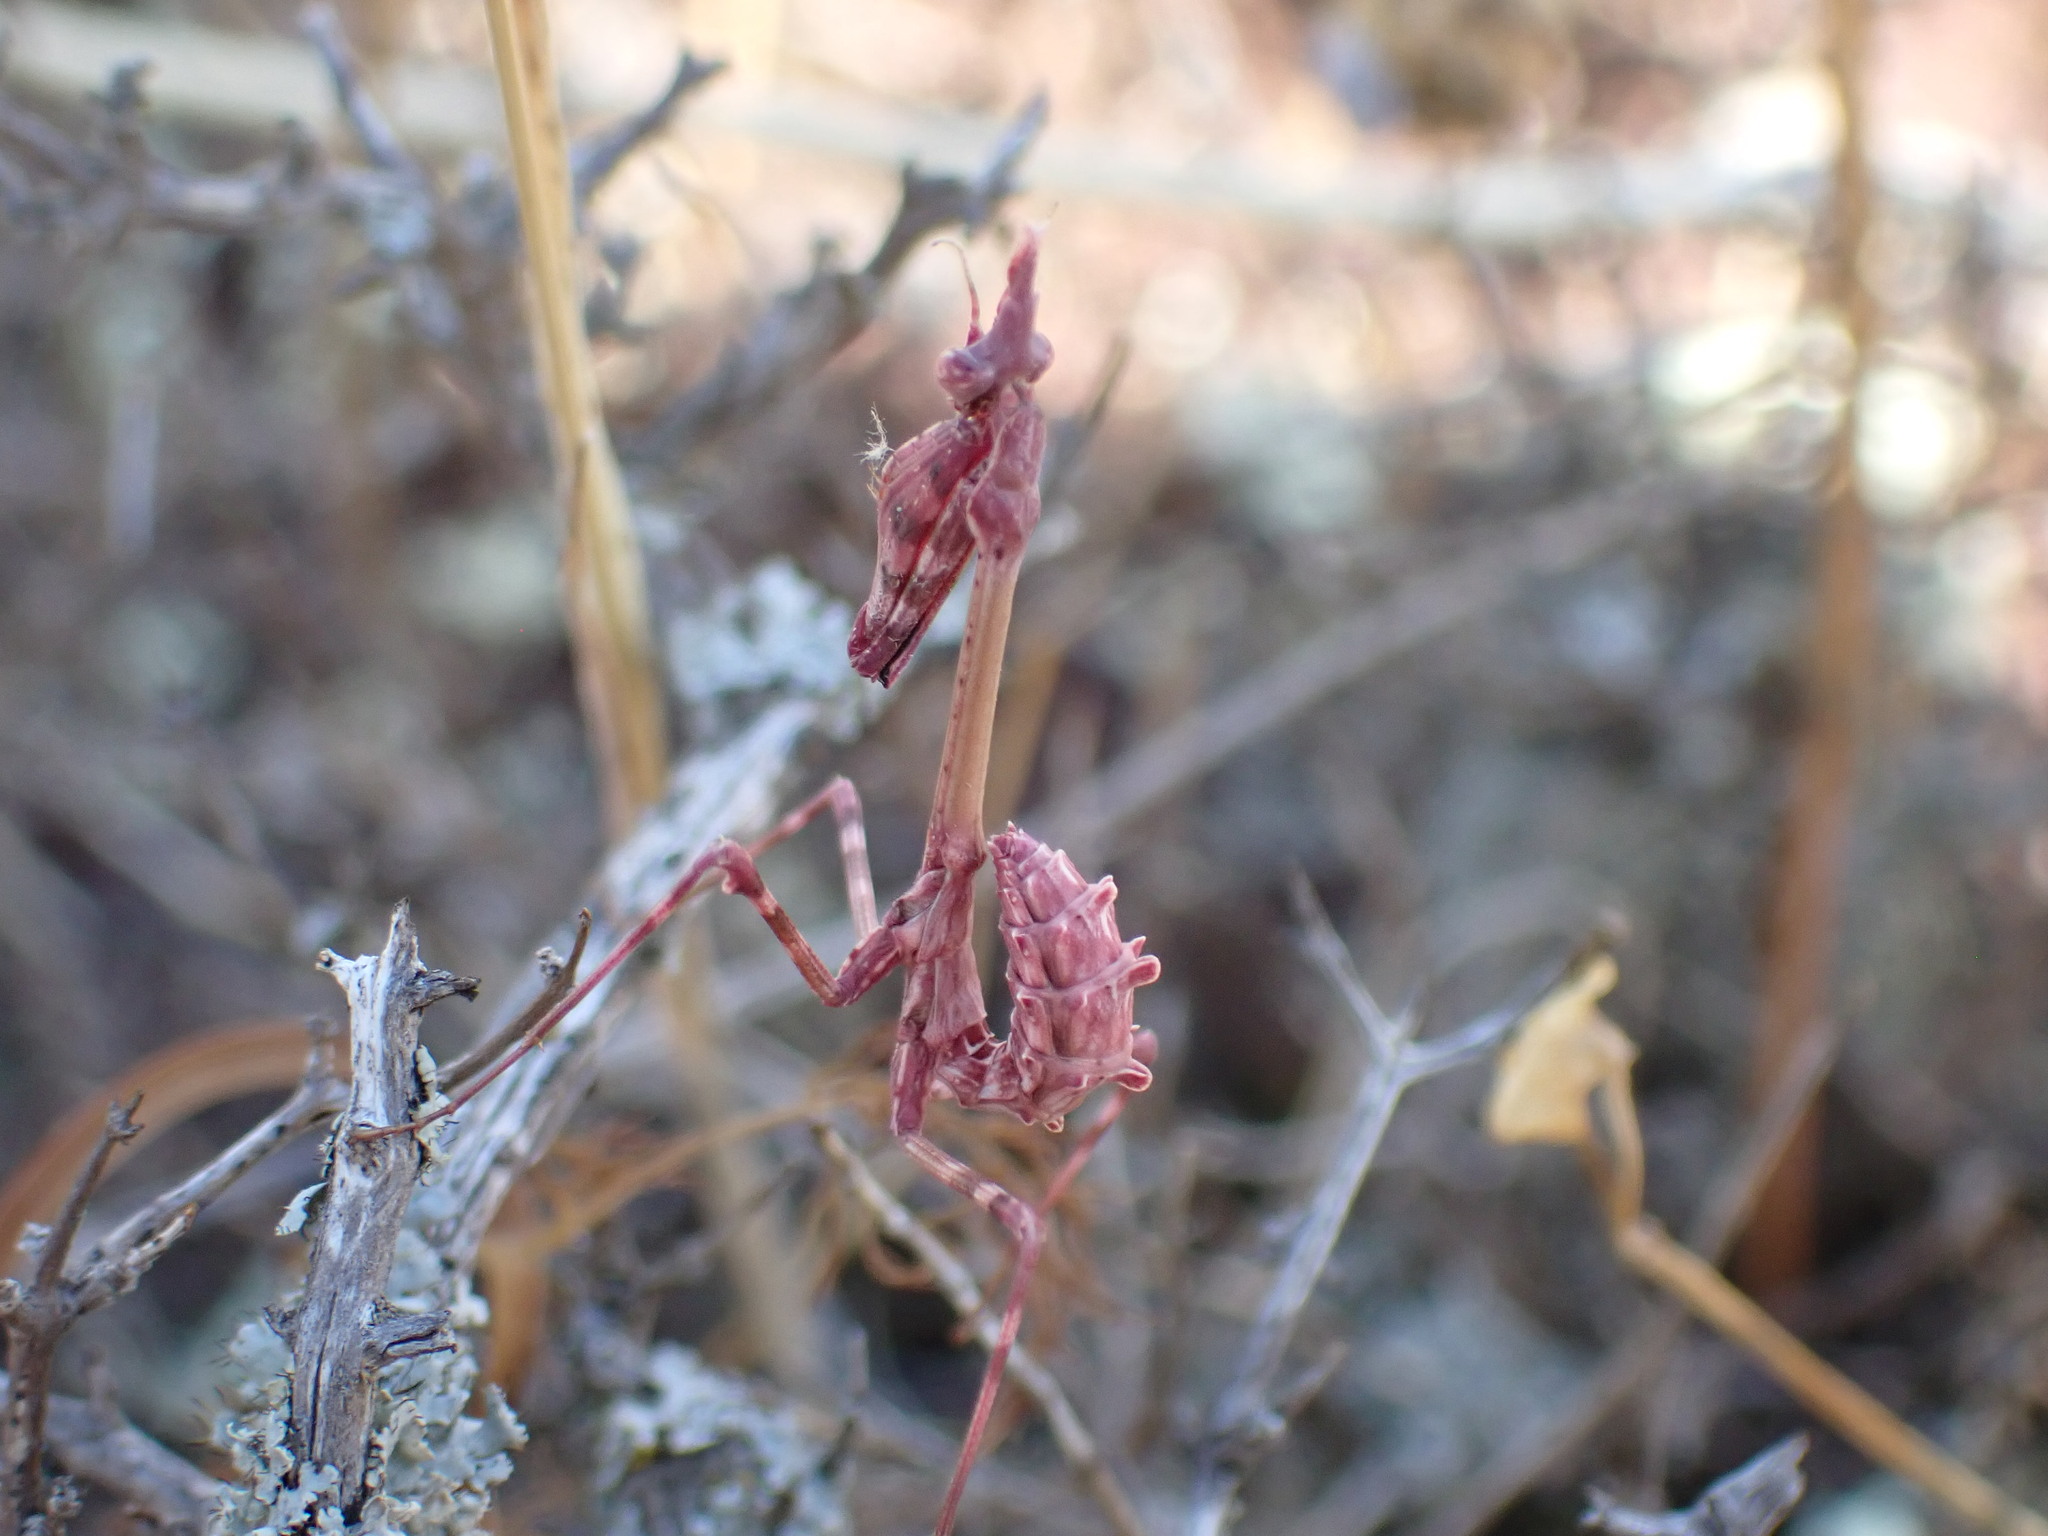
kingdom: Animalia
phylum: Arthropoda
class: Insecta
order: Mantodea
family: Empusidae
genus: Empusa
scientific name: Empusa pennata
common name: Conehead mantis
